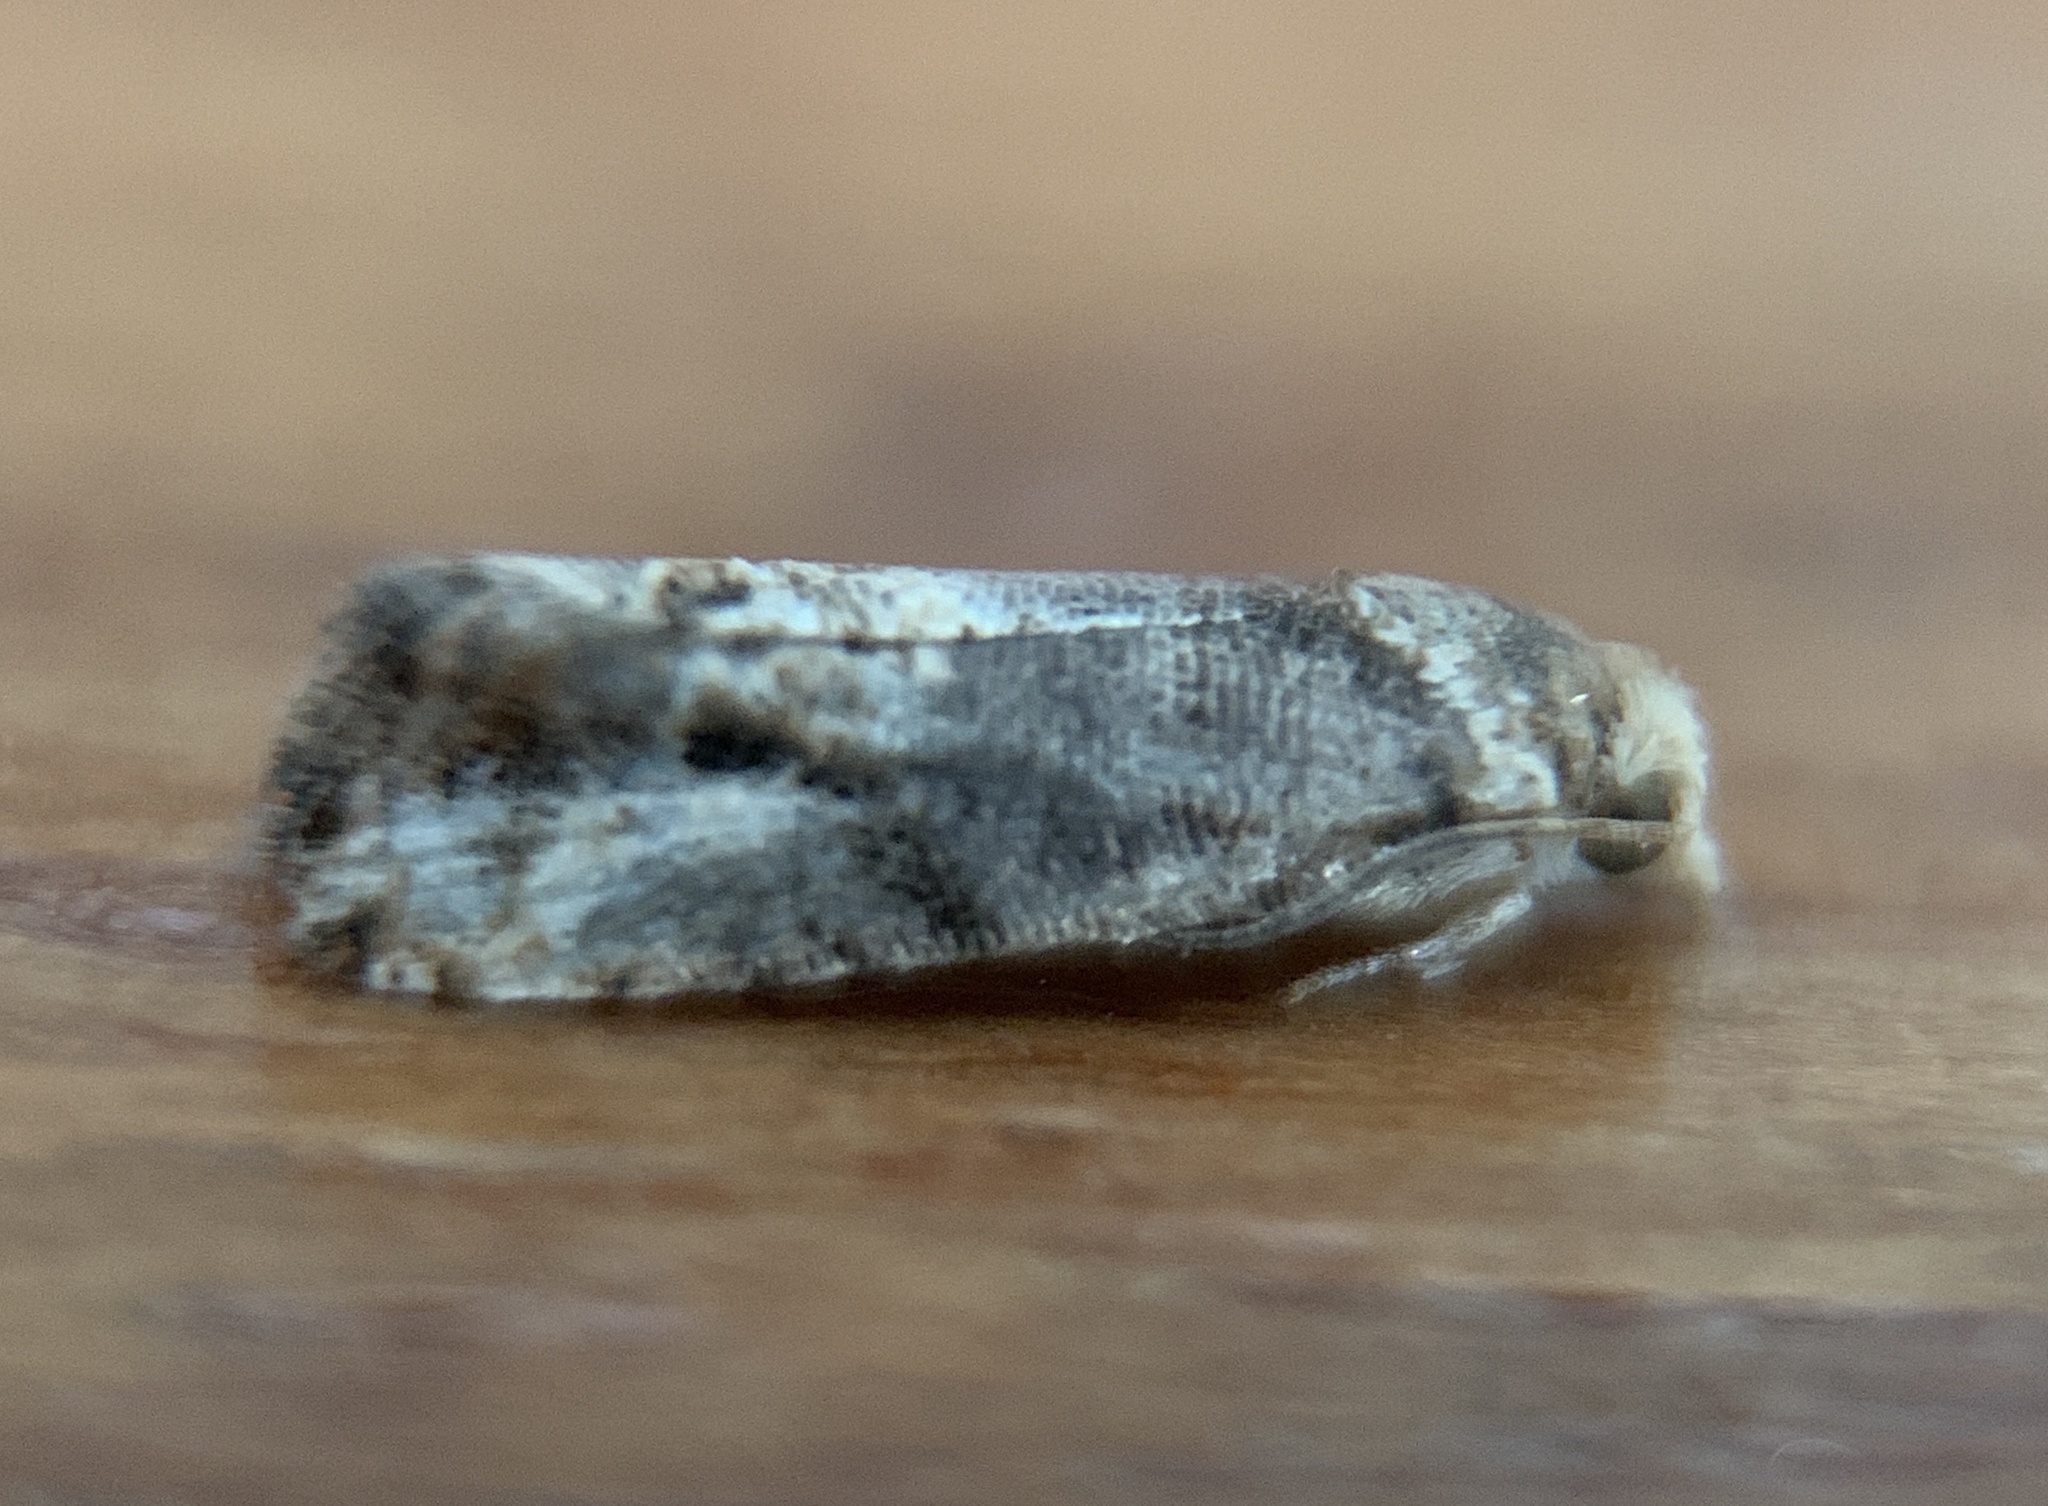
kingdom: Animalia
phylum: Arthropoda
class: Insecta
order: Lepidoptera
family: Tortricidae
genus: Paralobesia
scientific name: Paralobesia viteana
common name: Grape berry moth
